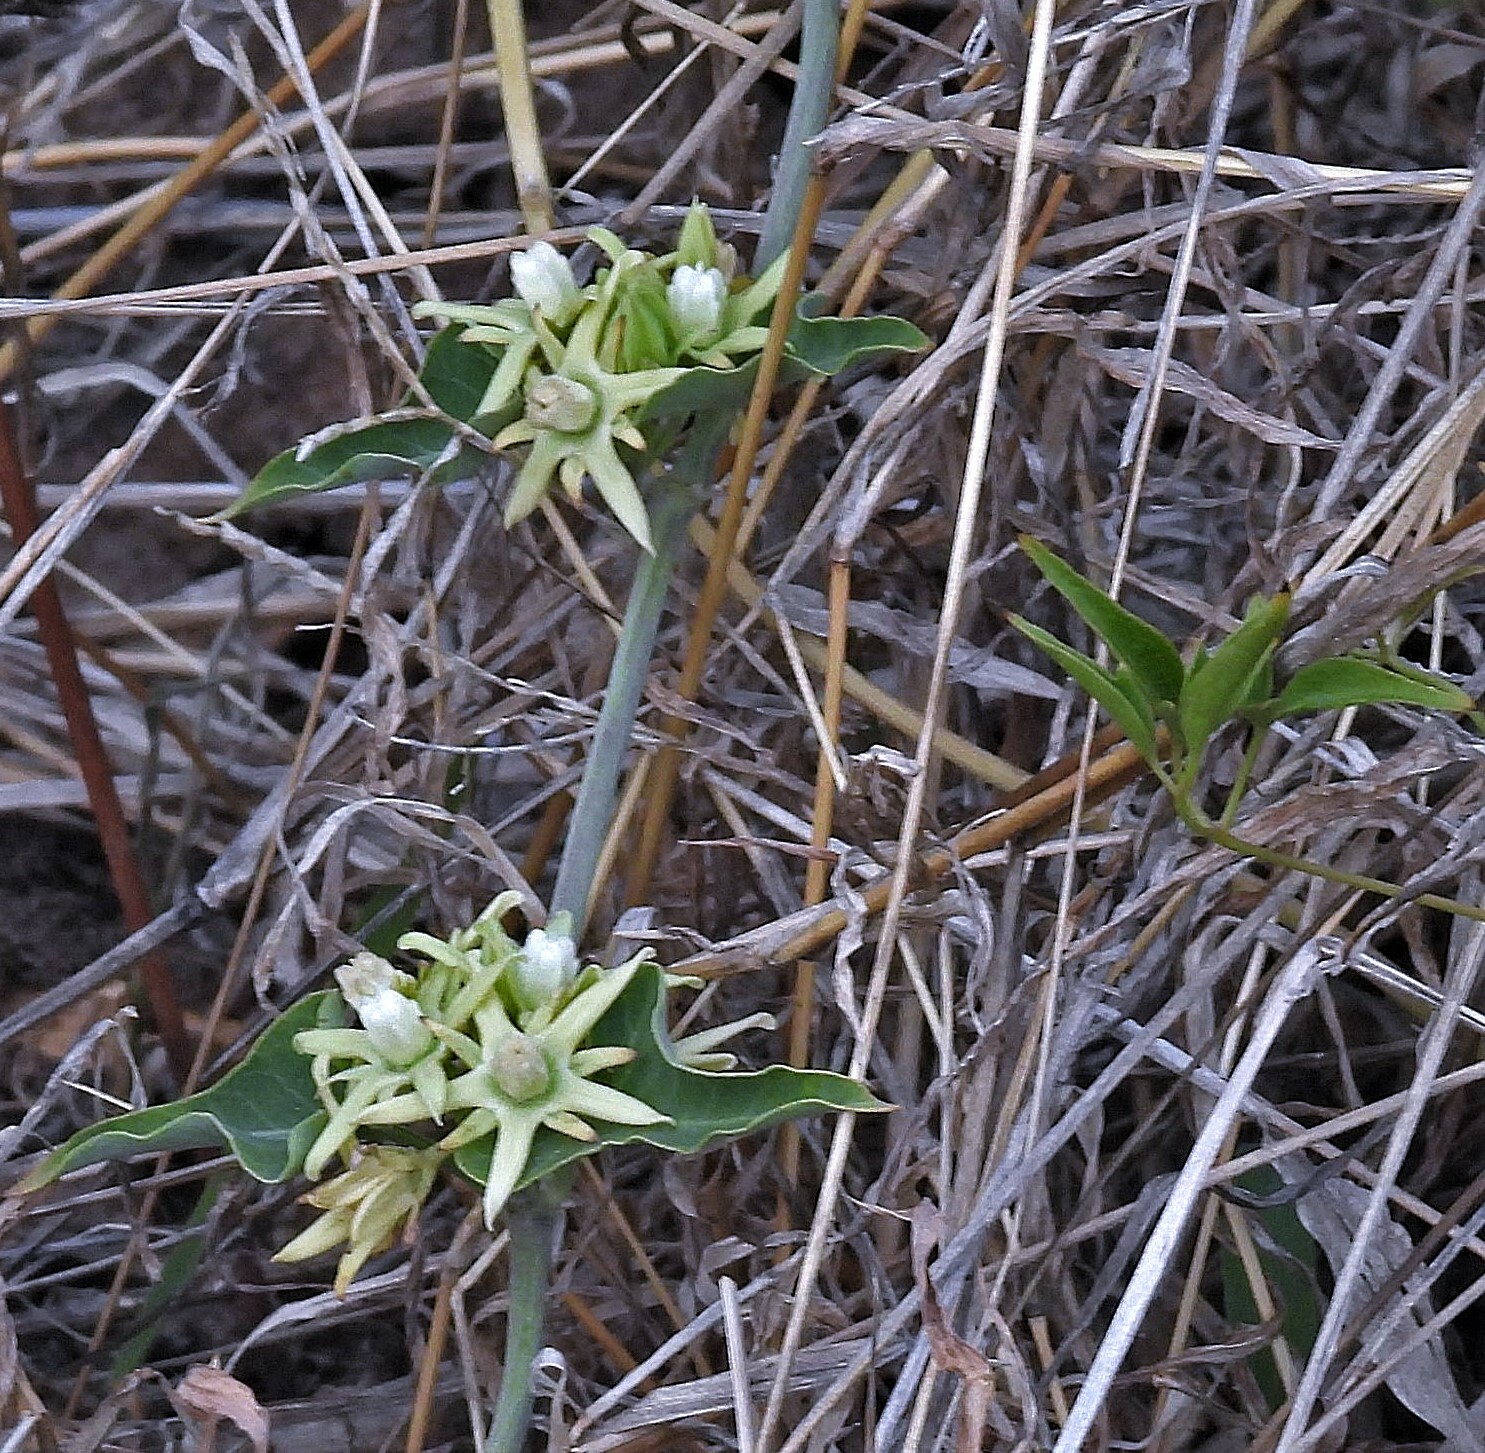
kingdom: Plantae
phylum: Tracheophyta
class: Magnoliopsida
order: Gentianales
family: Apocynaceae
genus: Araujia
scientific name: Araujia odorata
